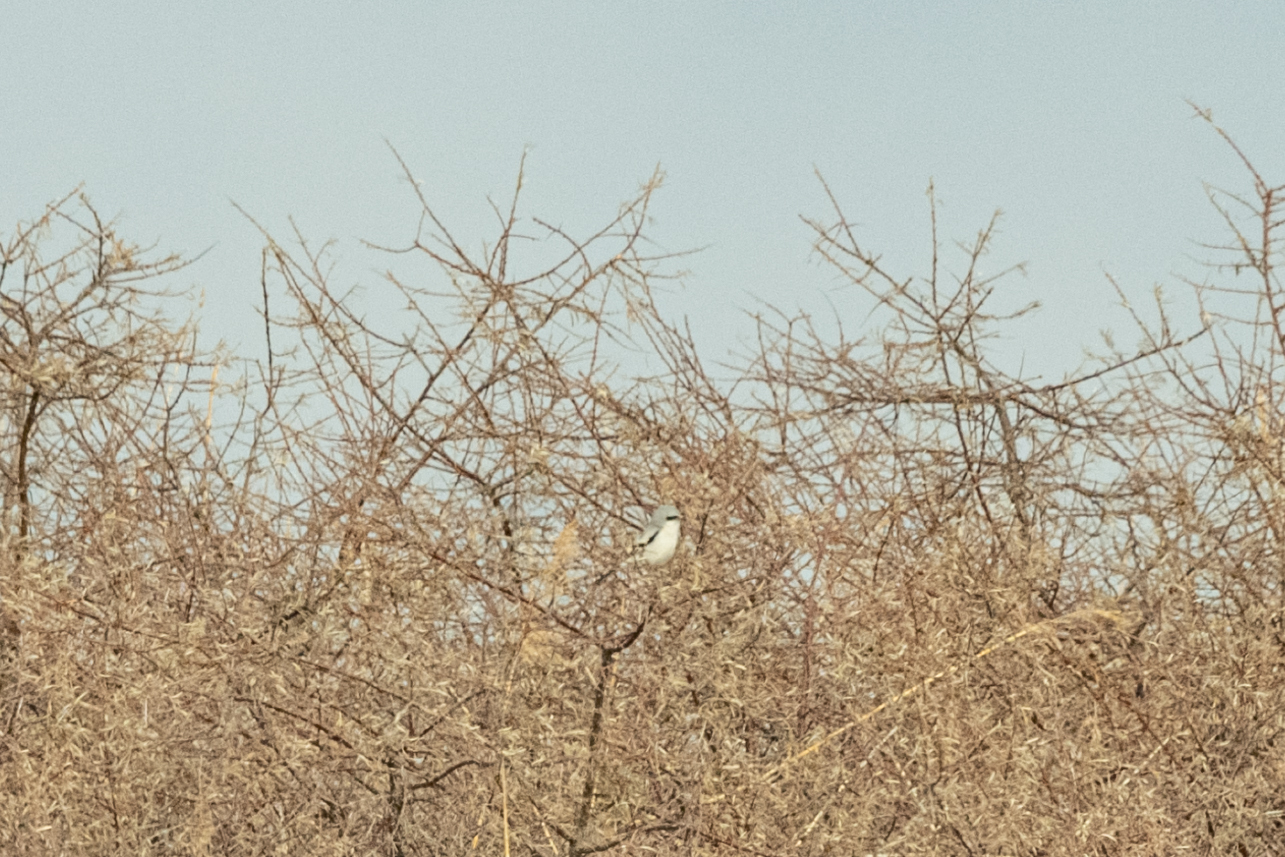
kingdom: Animalia
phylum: Chordata
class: Aves
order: Passeriformes
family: Laniidae
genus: Lanius
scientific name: Lanius excubitor
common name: Great grey shrike
